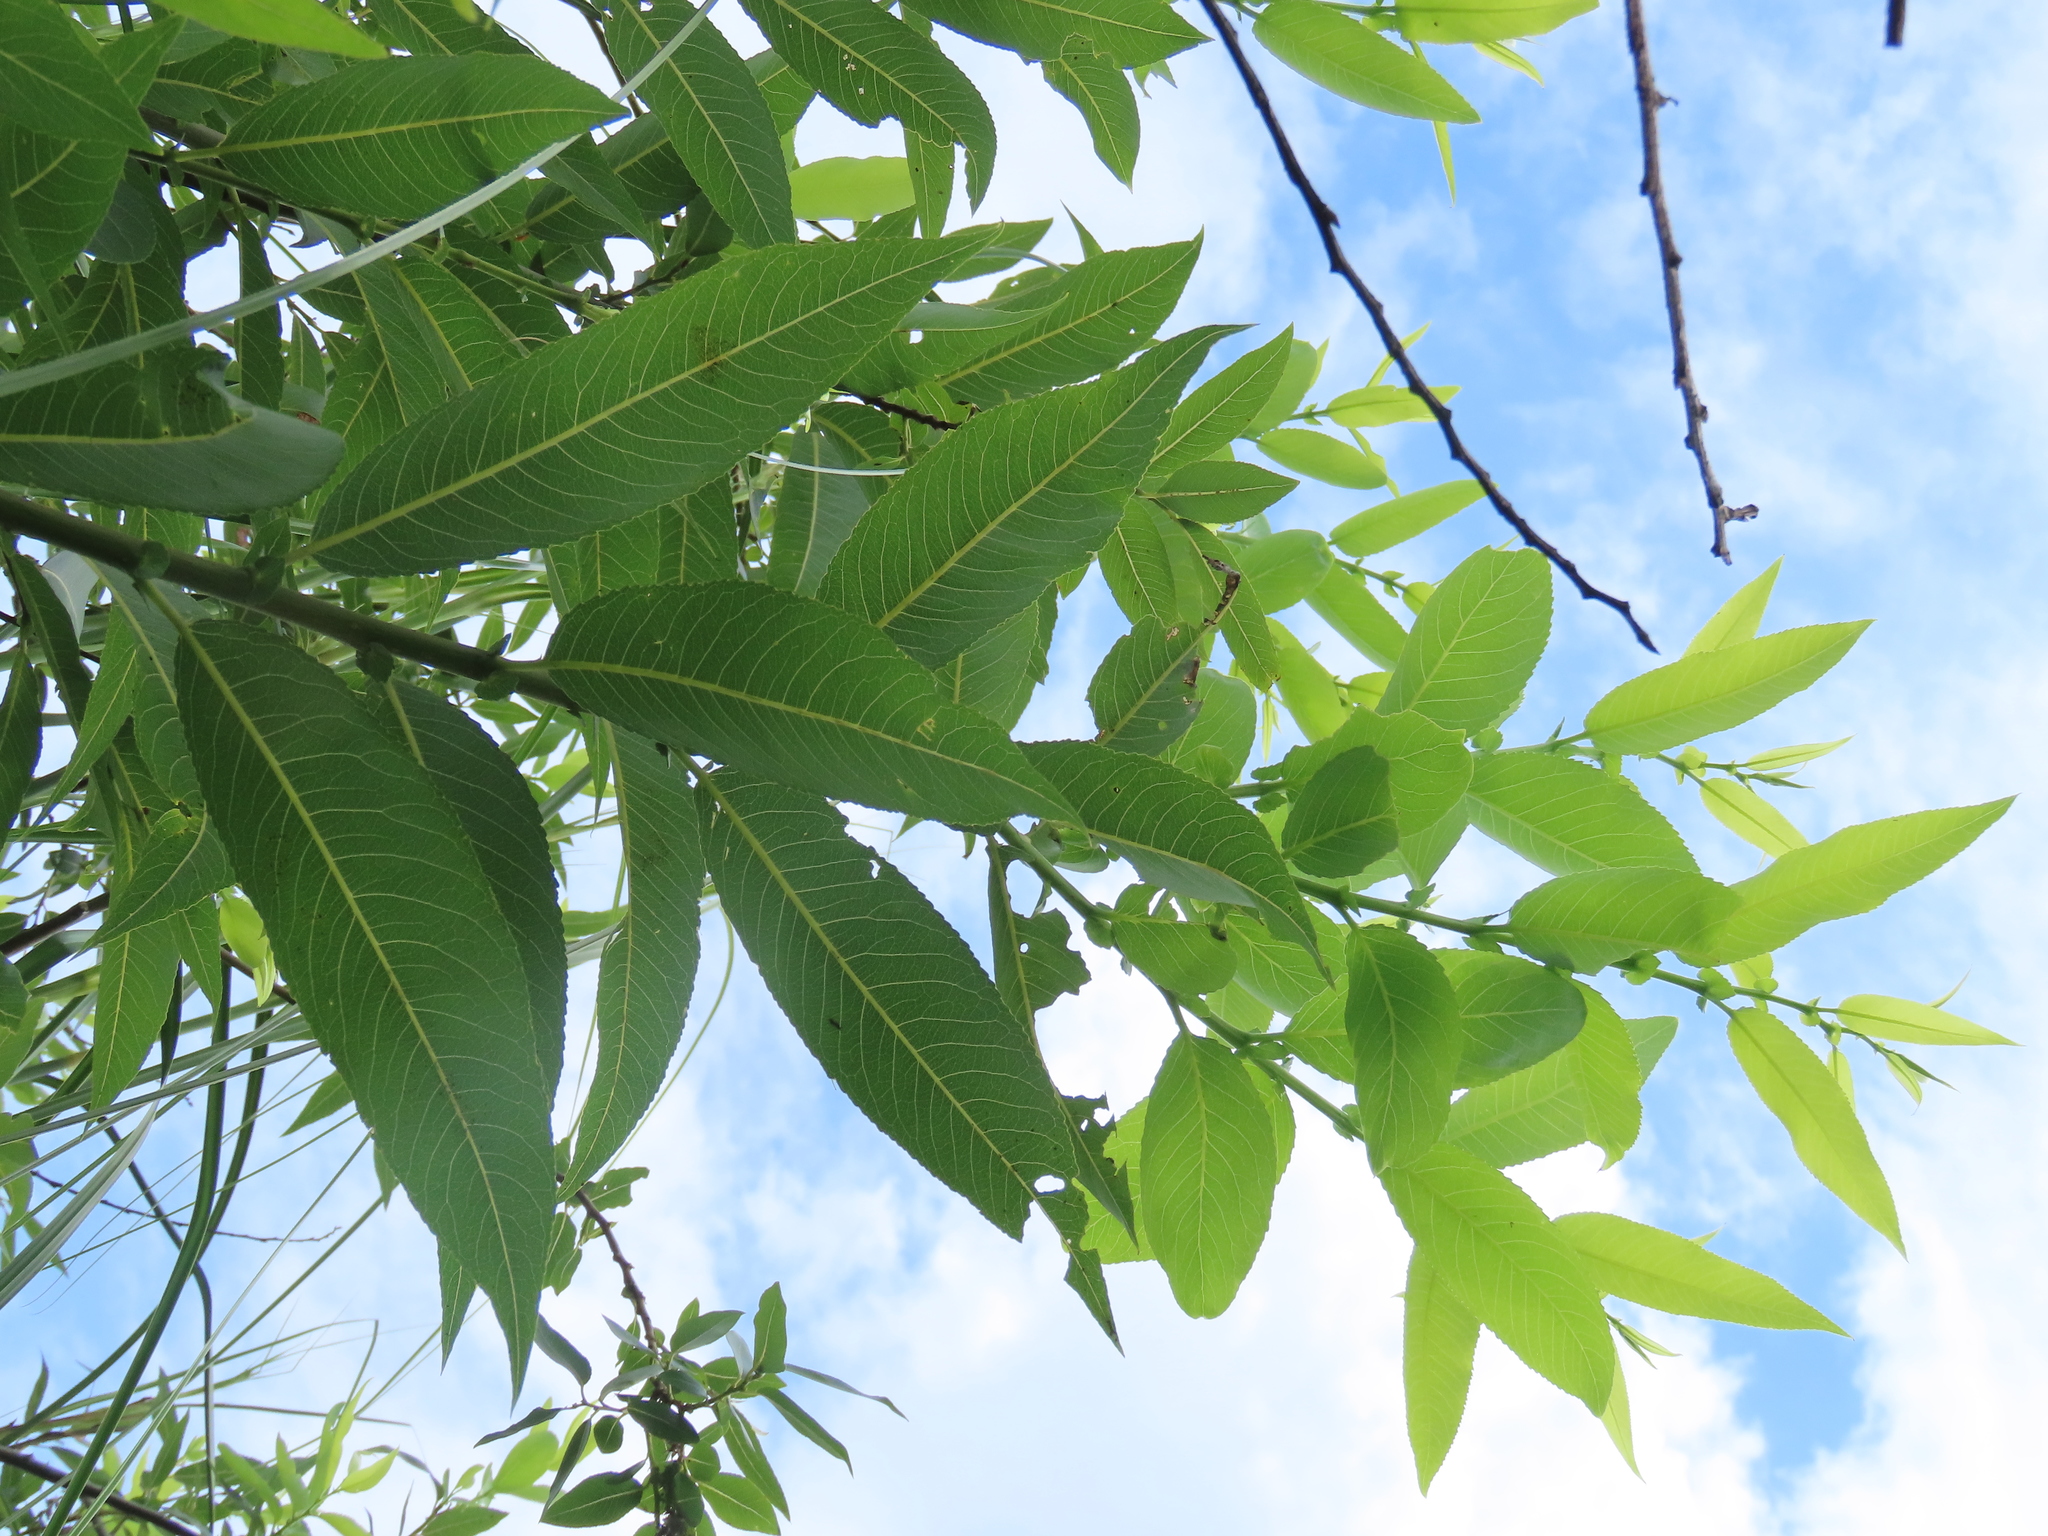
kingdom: Plantae
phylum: Tracheophyta
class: Magnoliopsida
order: Malpighiales
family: Salicaceae
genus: Salix
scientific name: Salix mesnyi
